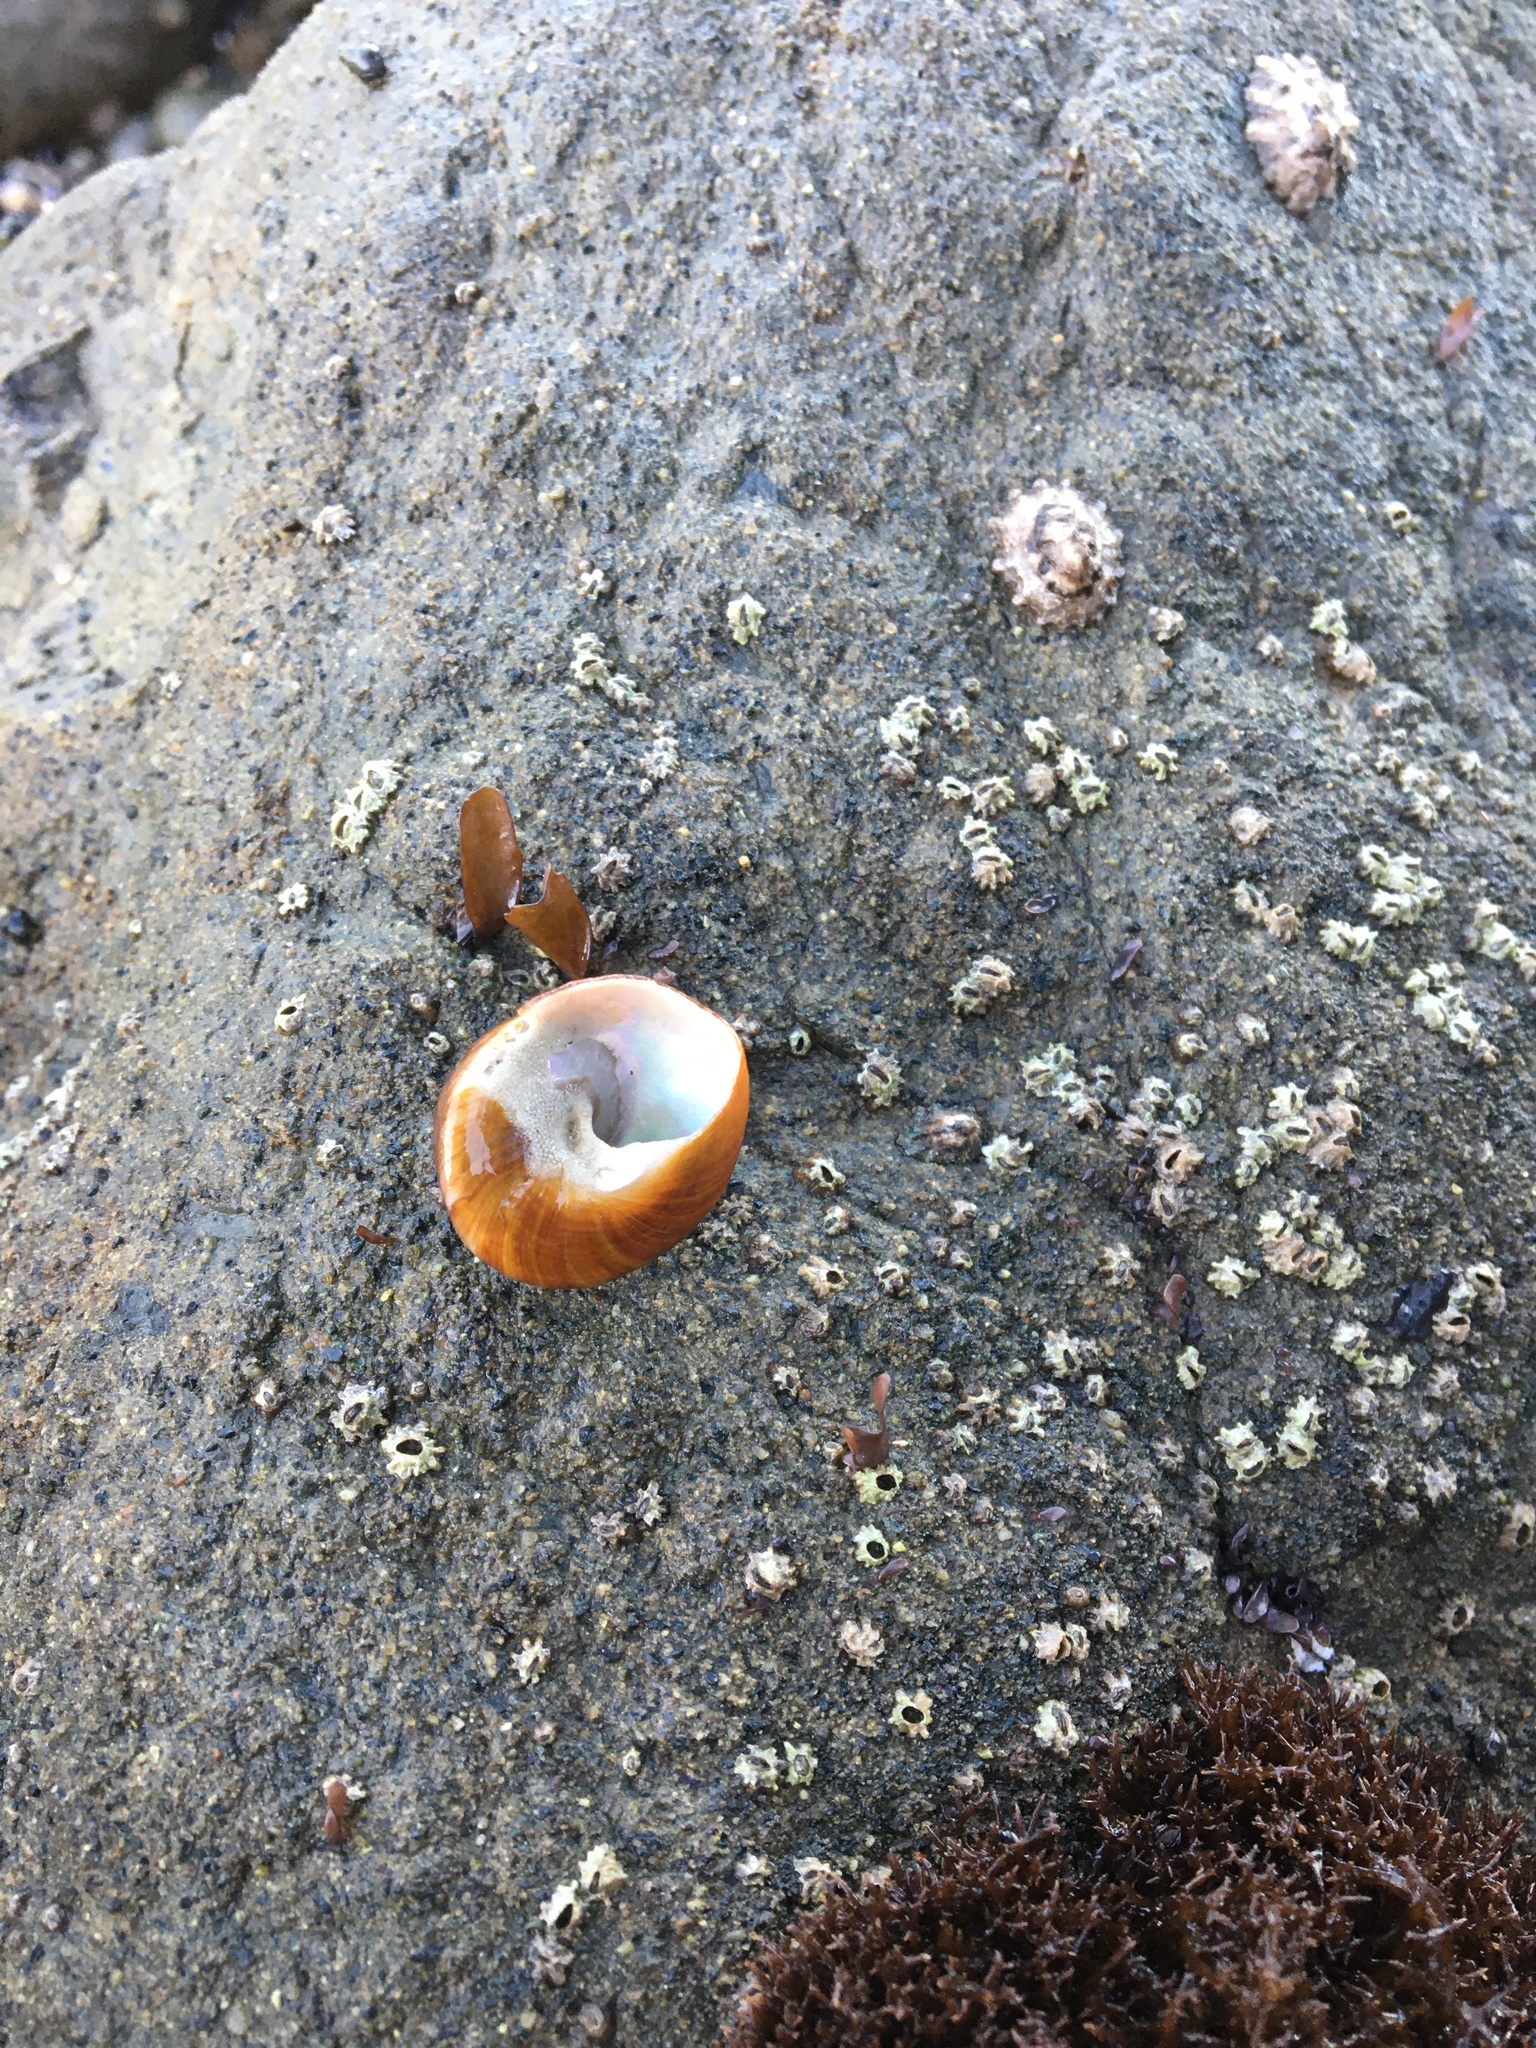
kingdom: Animalia
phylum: Mollusca
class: Gastropoda
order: Trochida
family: Tegulidae
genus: Tegula
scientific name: Tegula brunnea
